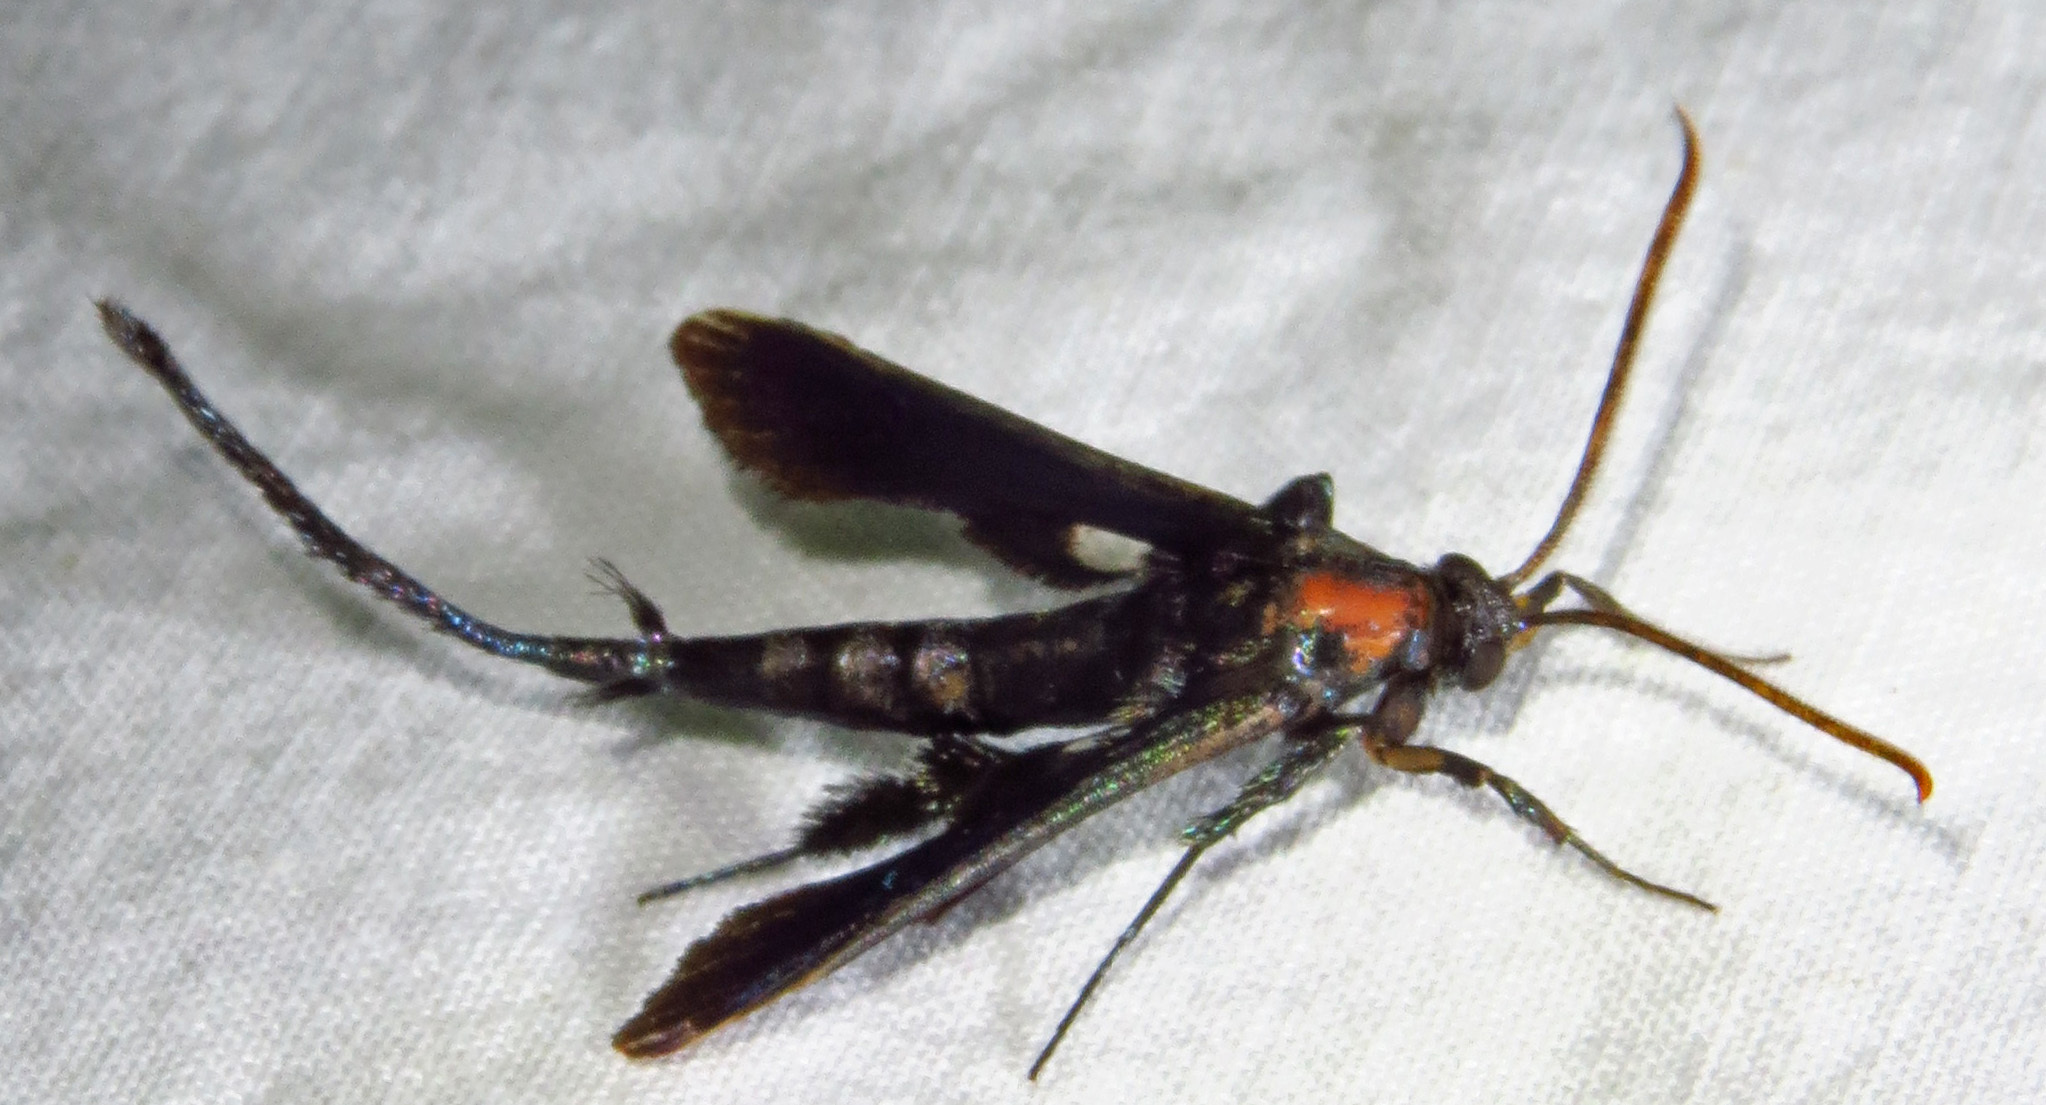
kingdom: Animalia
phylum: Arthropoda
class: Insecta
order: Lepidoptera
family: Sesiidae
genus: Alcathoe
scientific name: Alcathoe carolinensis
